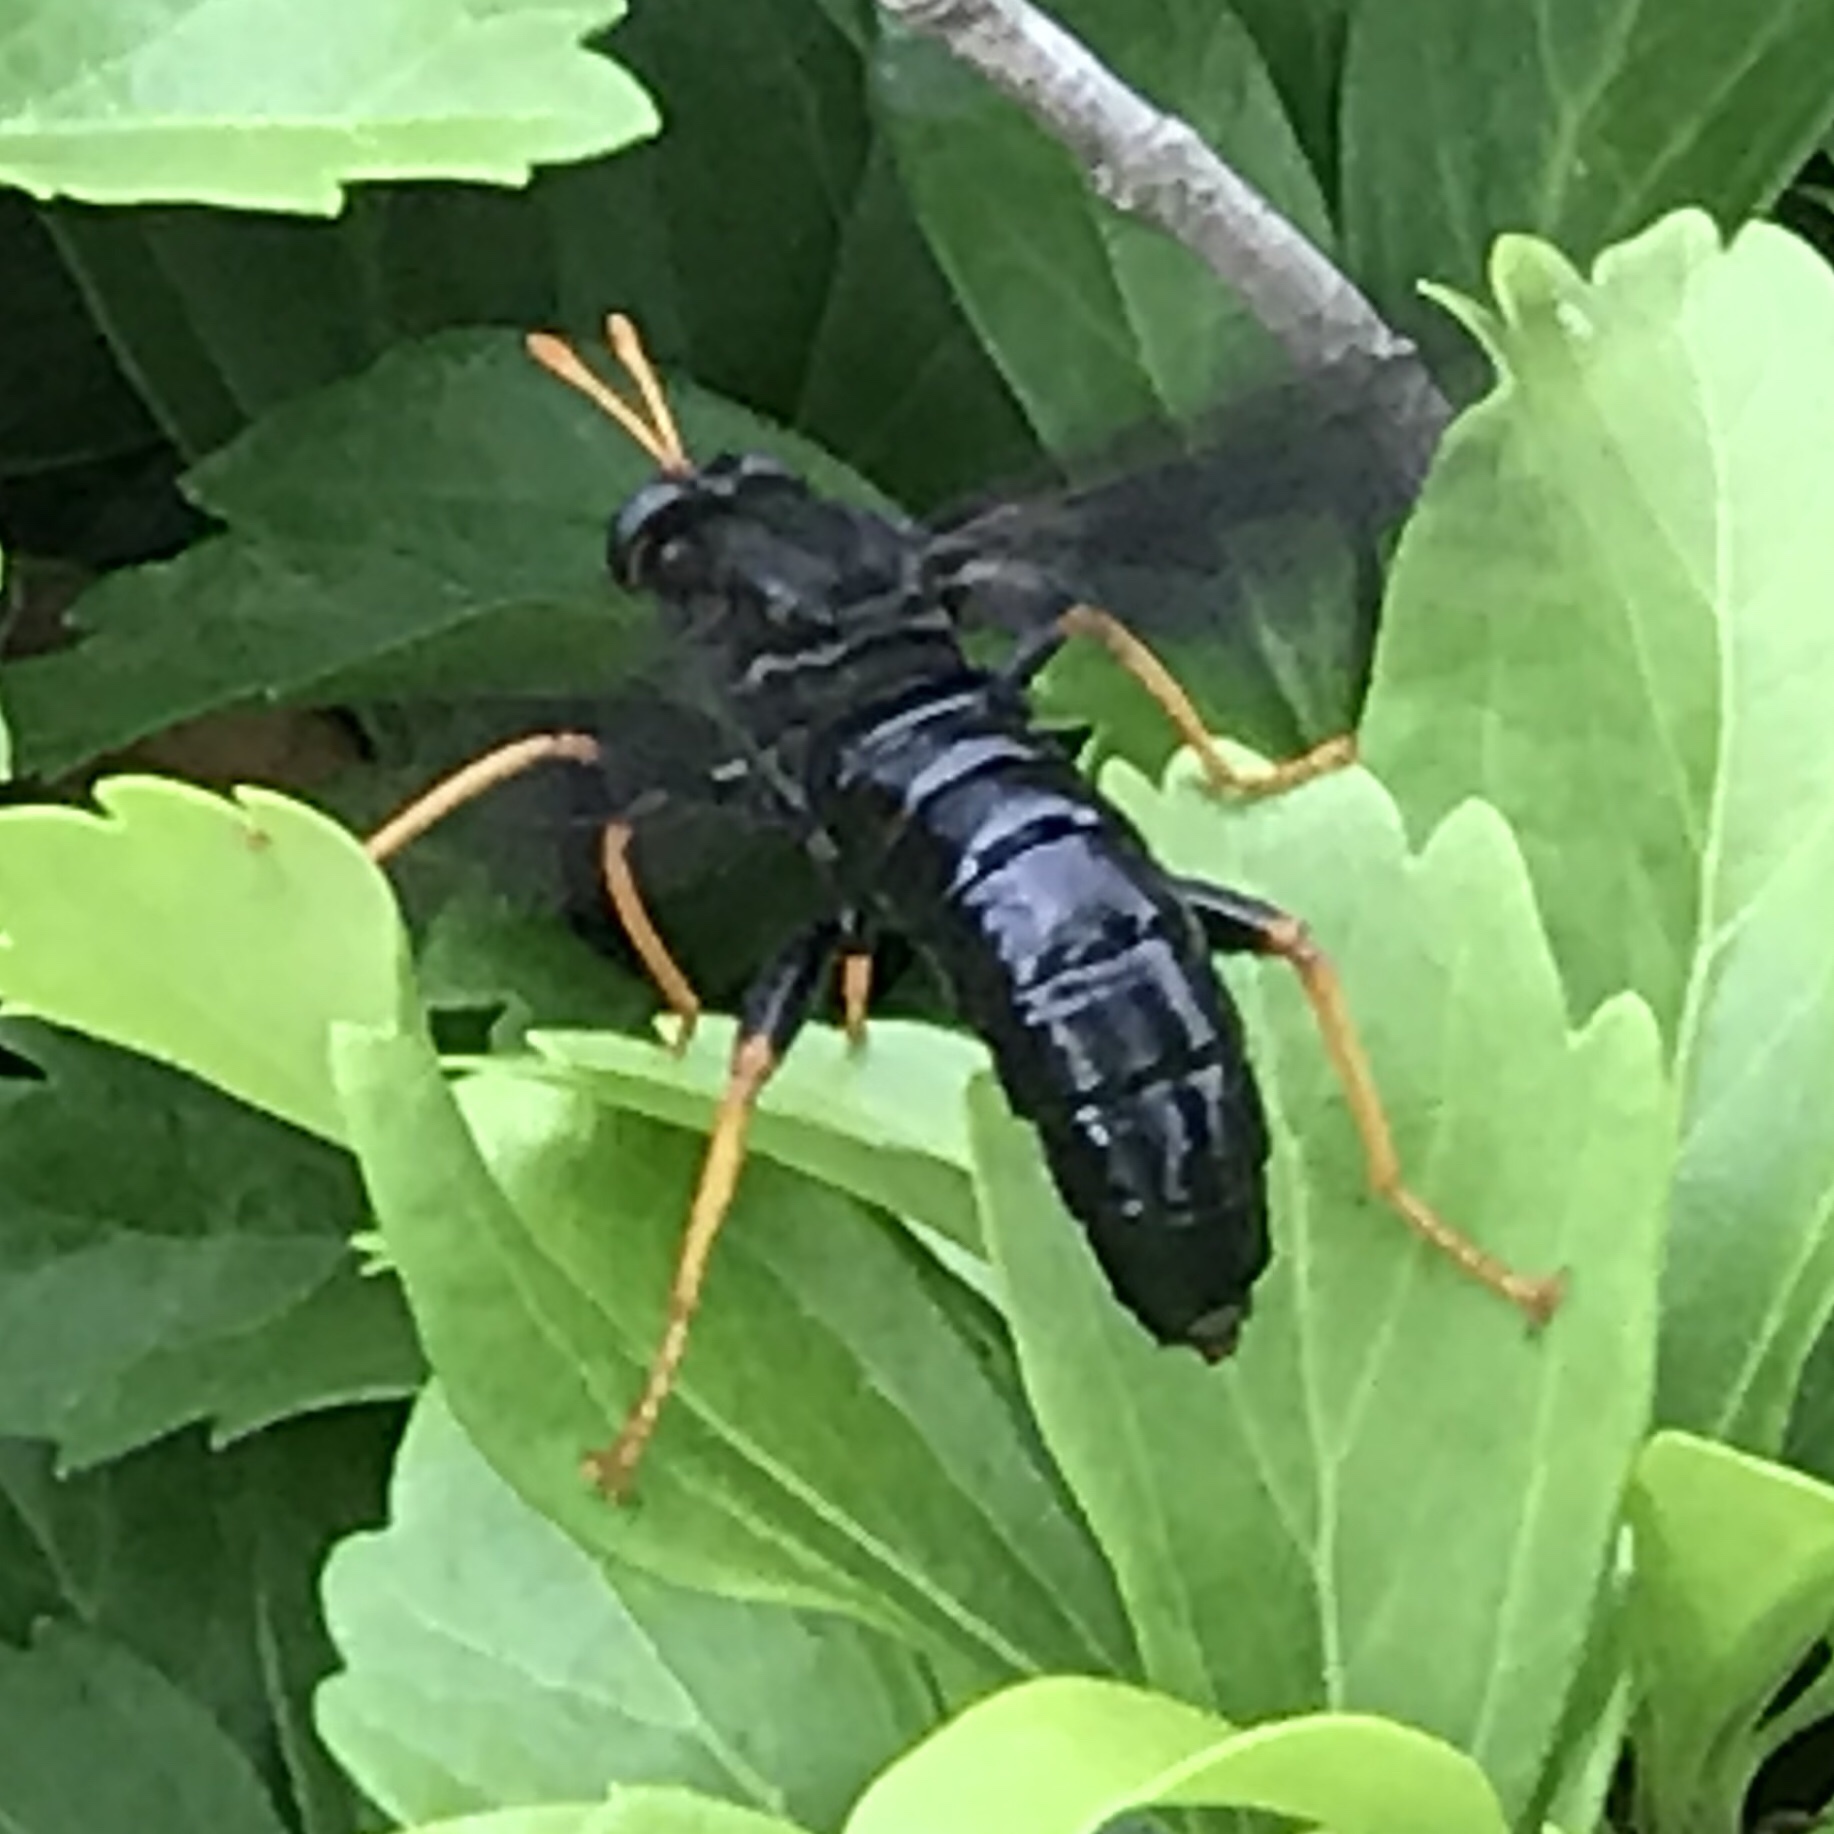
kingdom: Animalia
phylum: Arthropoda
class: Insecta
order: Diptera
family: Mydidae
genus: Mydas
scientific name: Mydas tibialis
